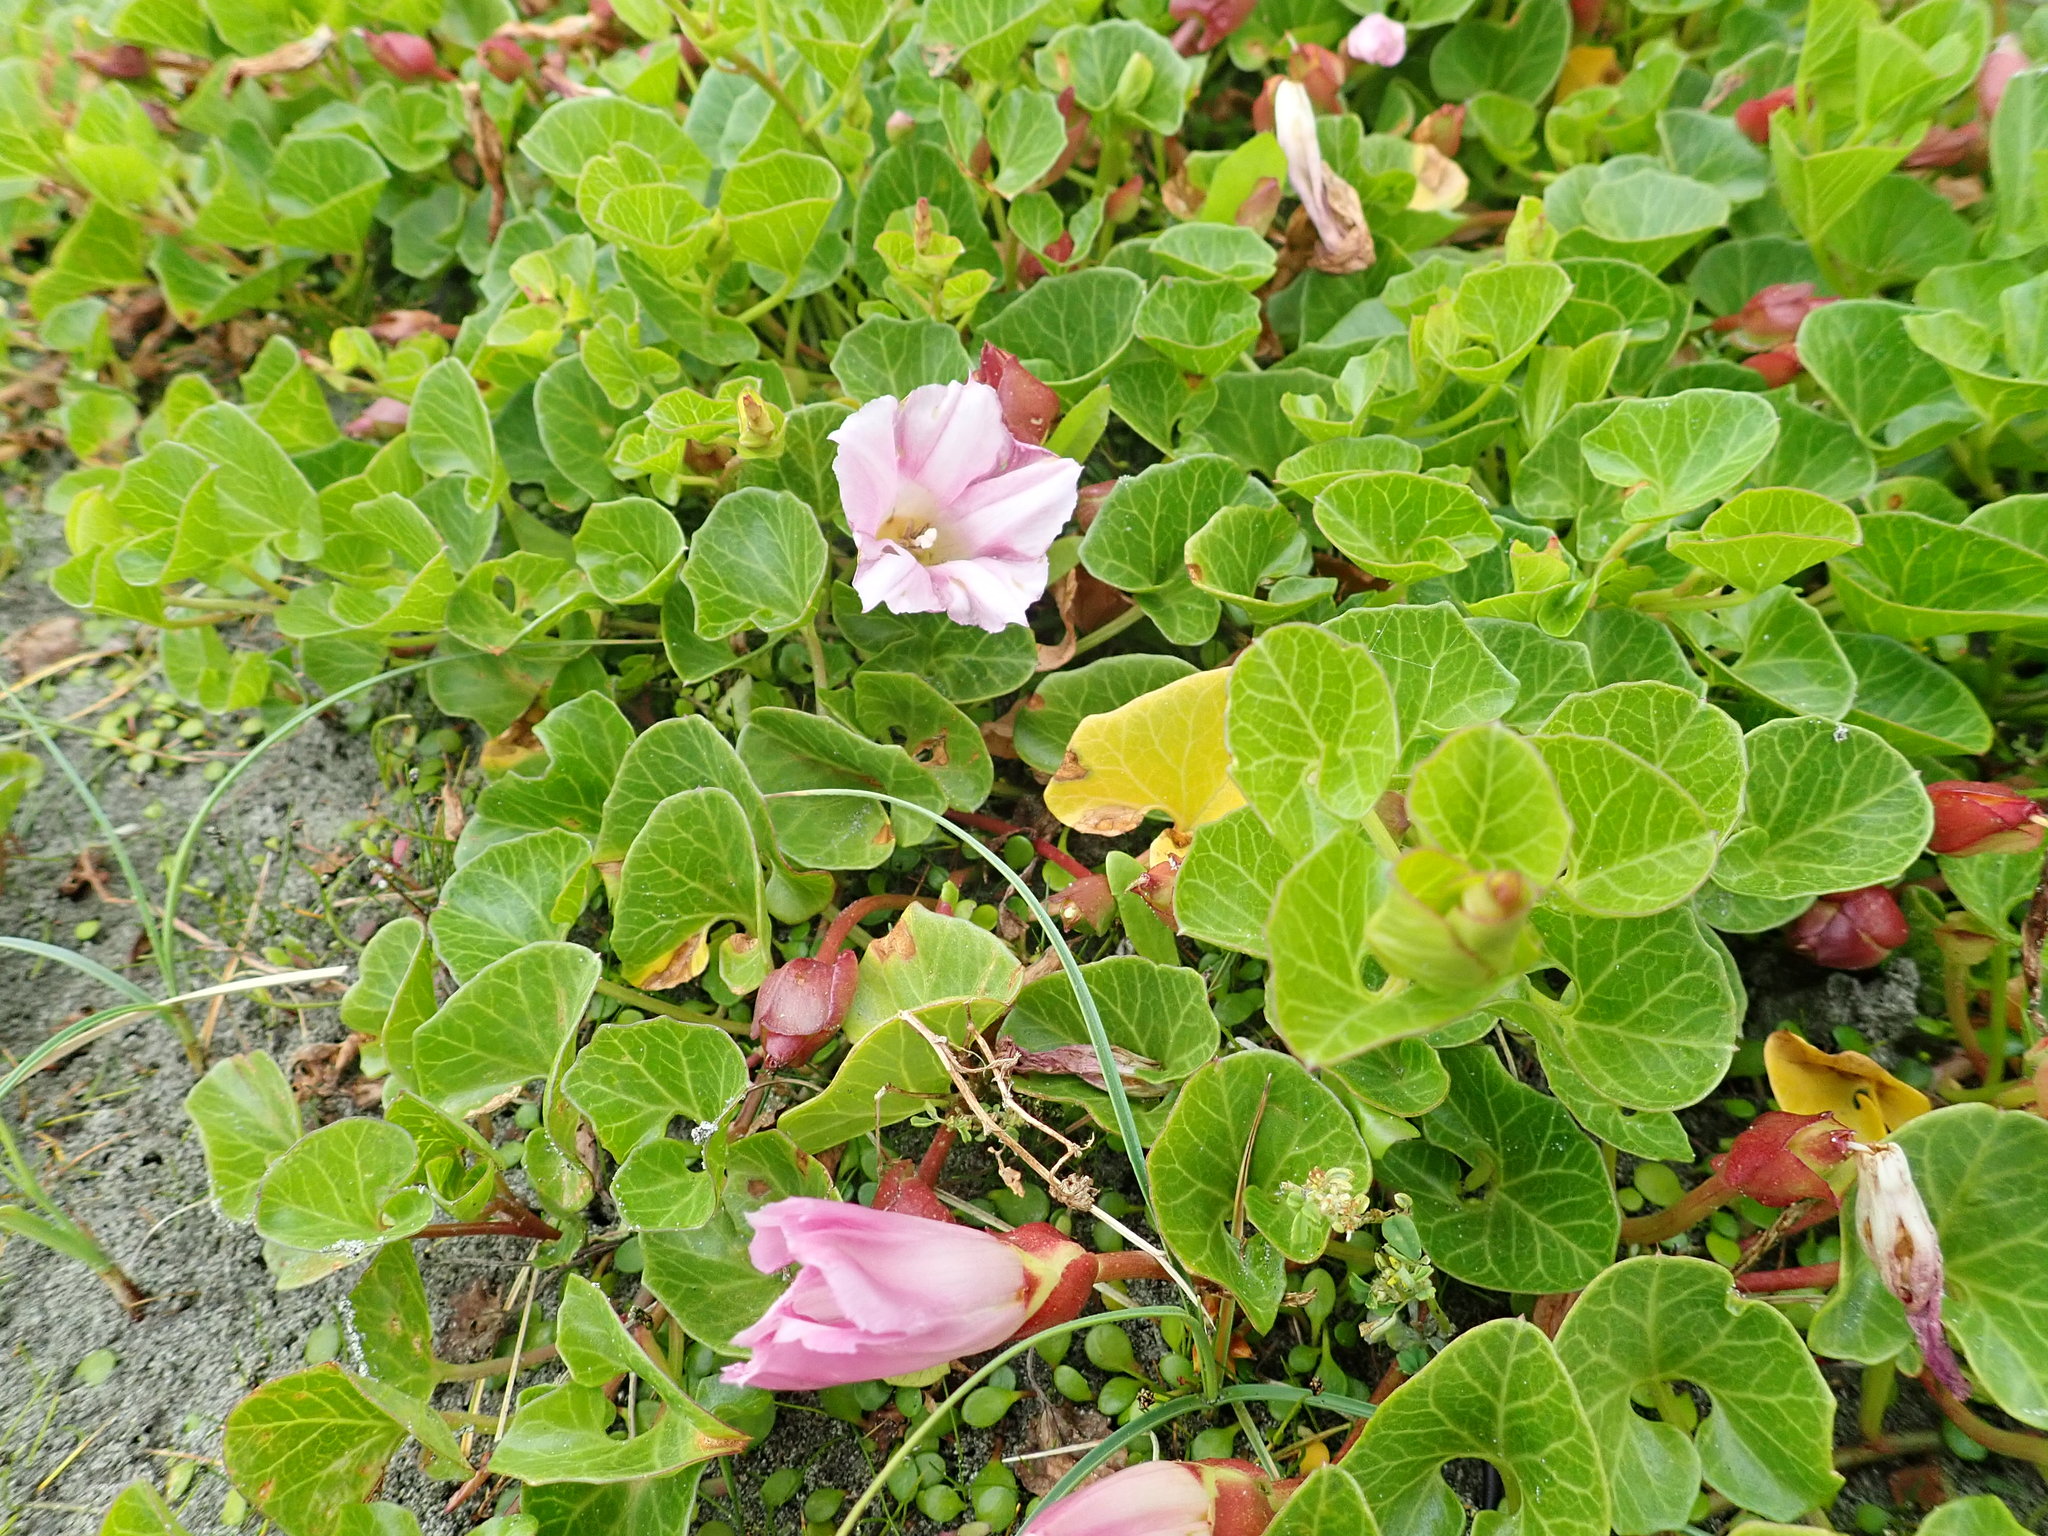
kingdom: Plantae
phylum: Tracheophyta
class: Magnoliopsida
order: Solanales
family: Convolvulaceae
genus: Calystegia
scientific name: Calystegia soldanella
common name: Sea bindweed
